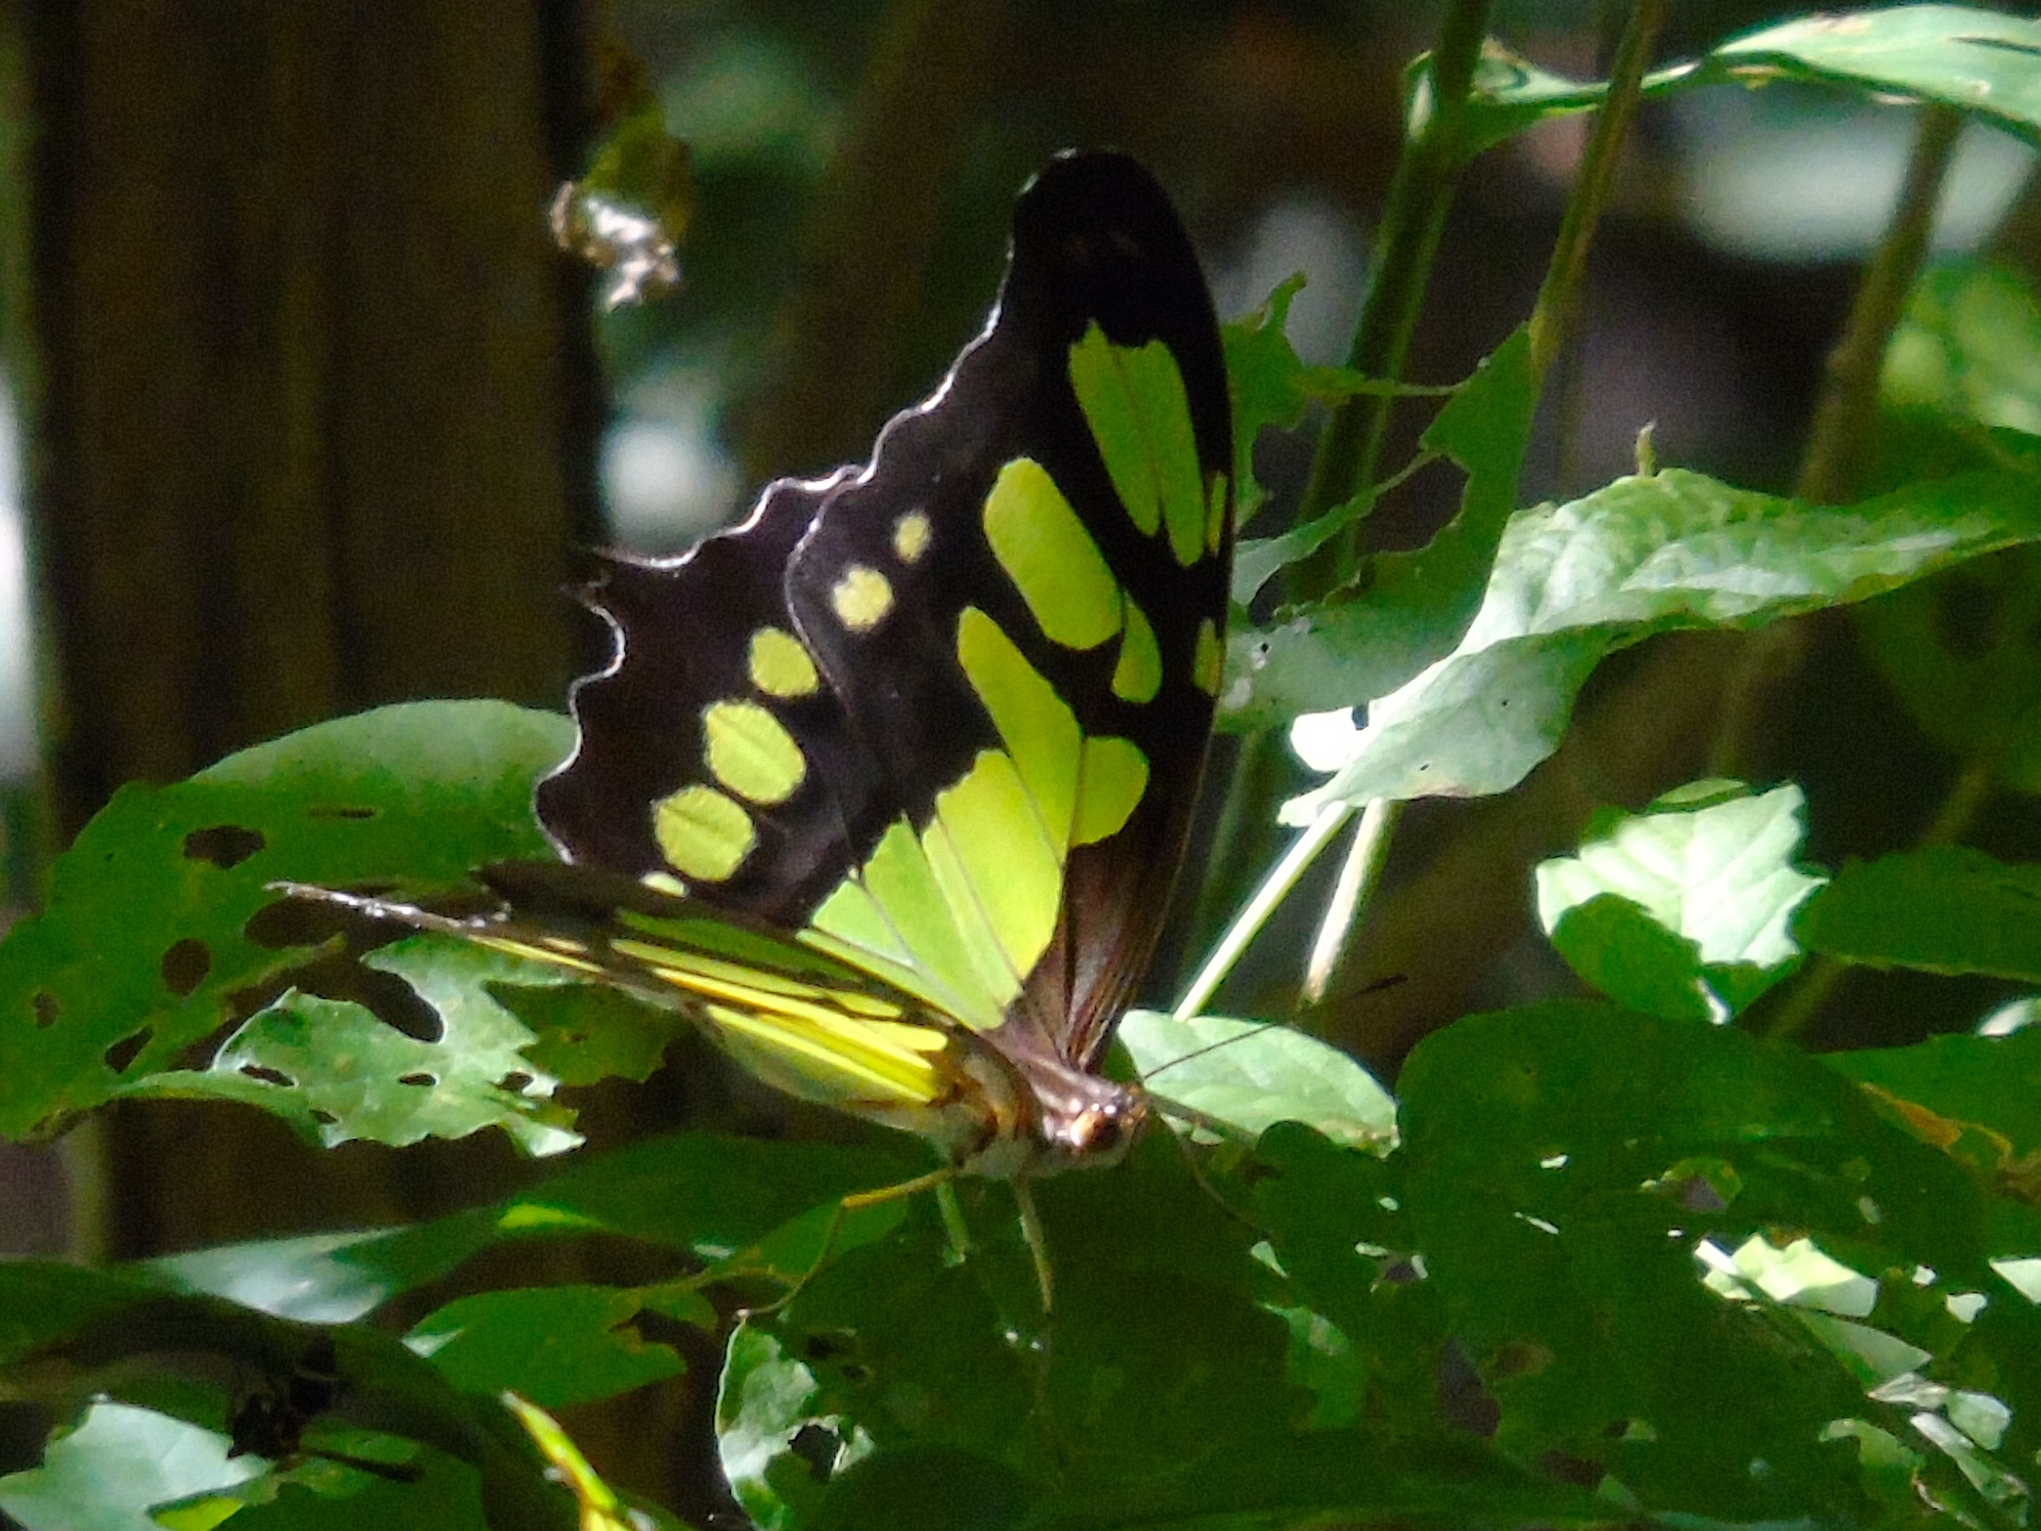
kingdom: Animalia
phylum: Arthropoda
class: Insecta
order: Lepidoptera
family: Nymphalidae
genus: Siproeta
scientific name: Siproeta stelenes
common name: Malachite
